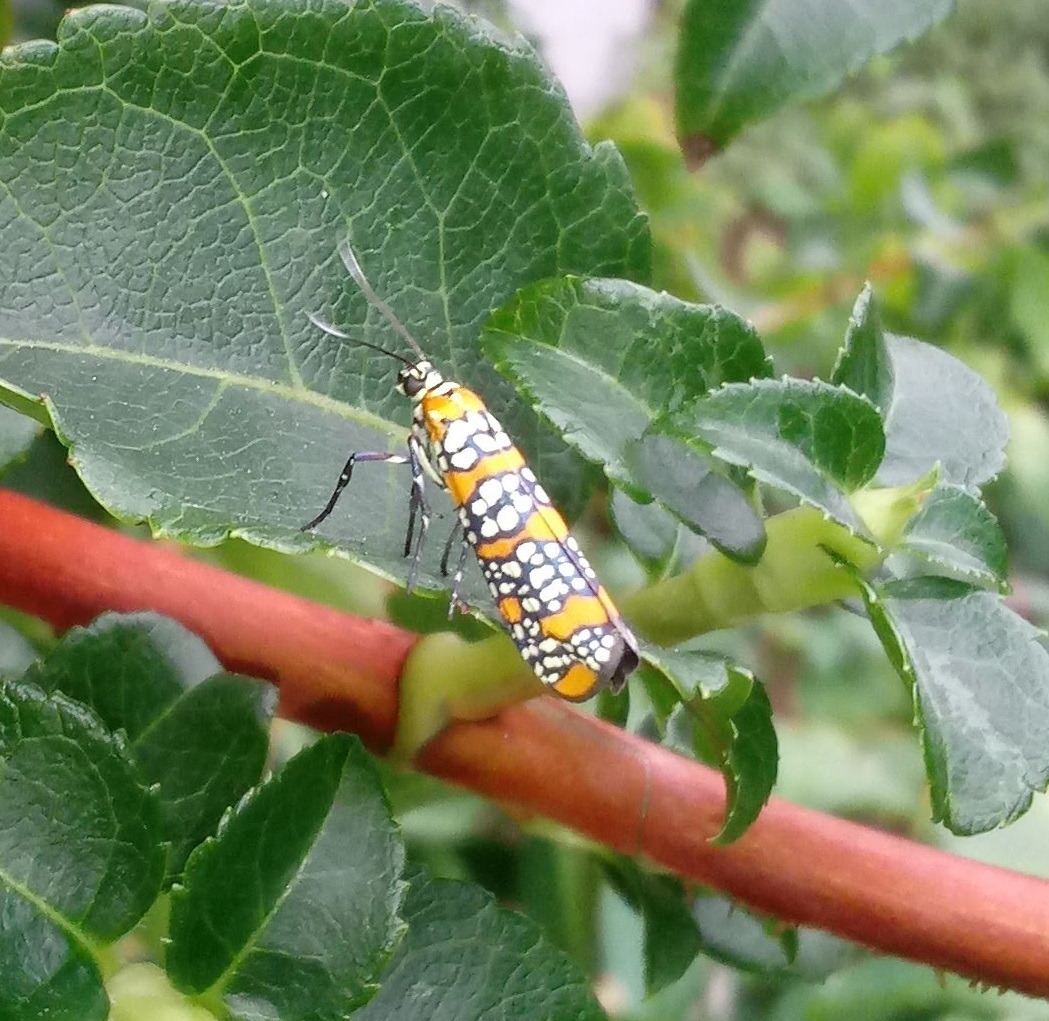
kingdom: Animalia
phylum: Arthropoda
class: Insecta
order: Lepidoptera
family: Attevidae
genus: Atteva
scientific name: Atteva punctella
